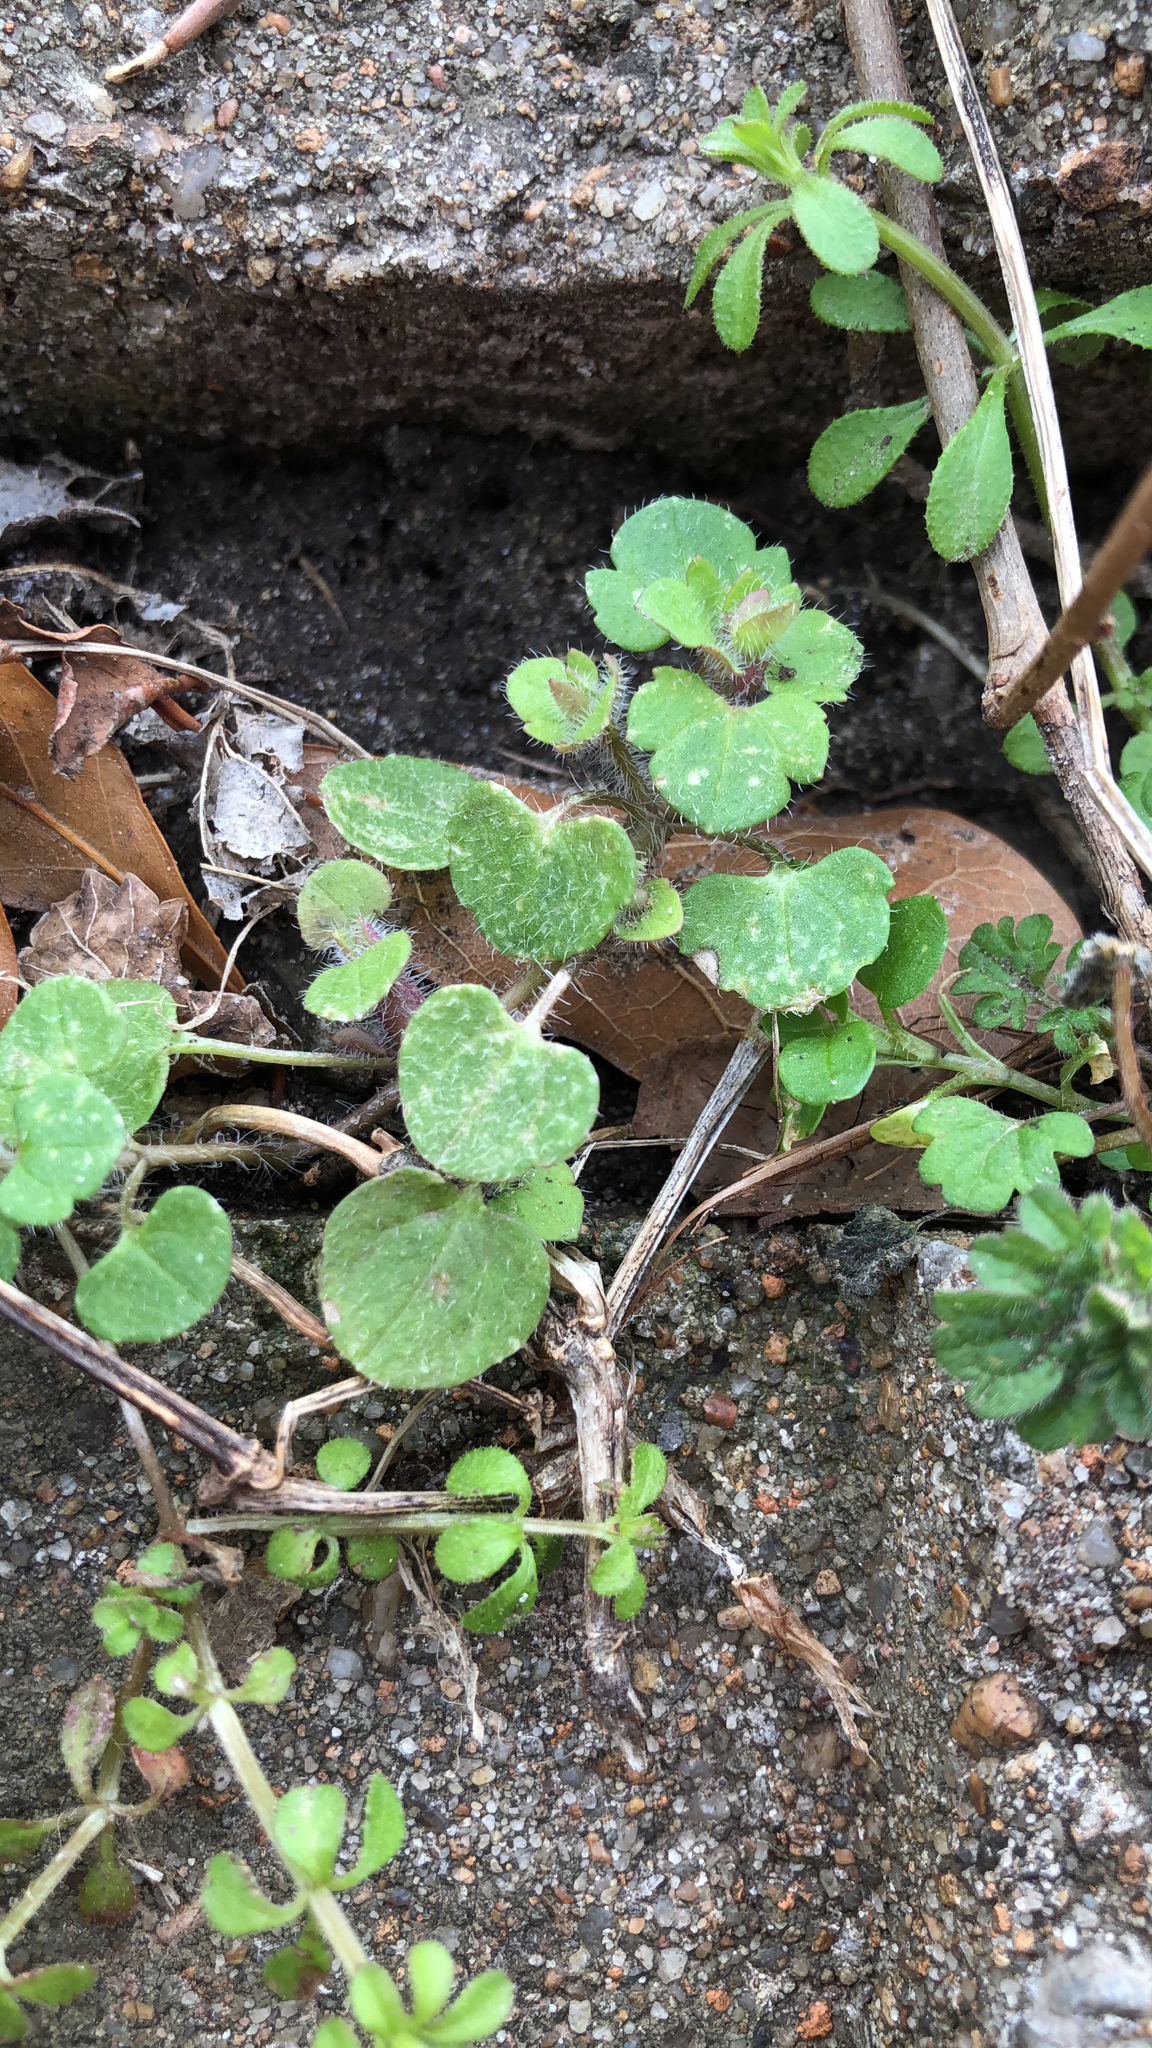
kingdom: Plantae
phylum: Tracheophyta
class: Magnoliopsida
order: Lamiales
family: Plantaginaceae
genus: Veronica
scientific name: Veronica hederifolia
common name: Ivy-leaved speedwell
